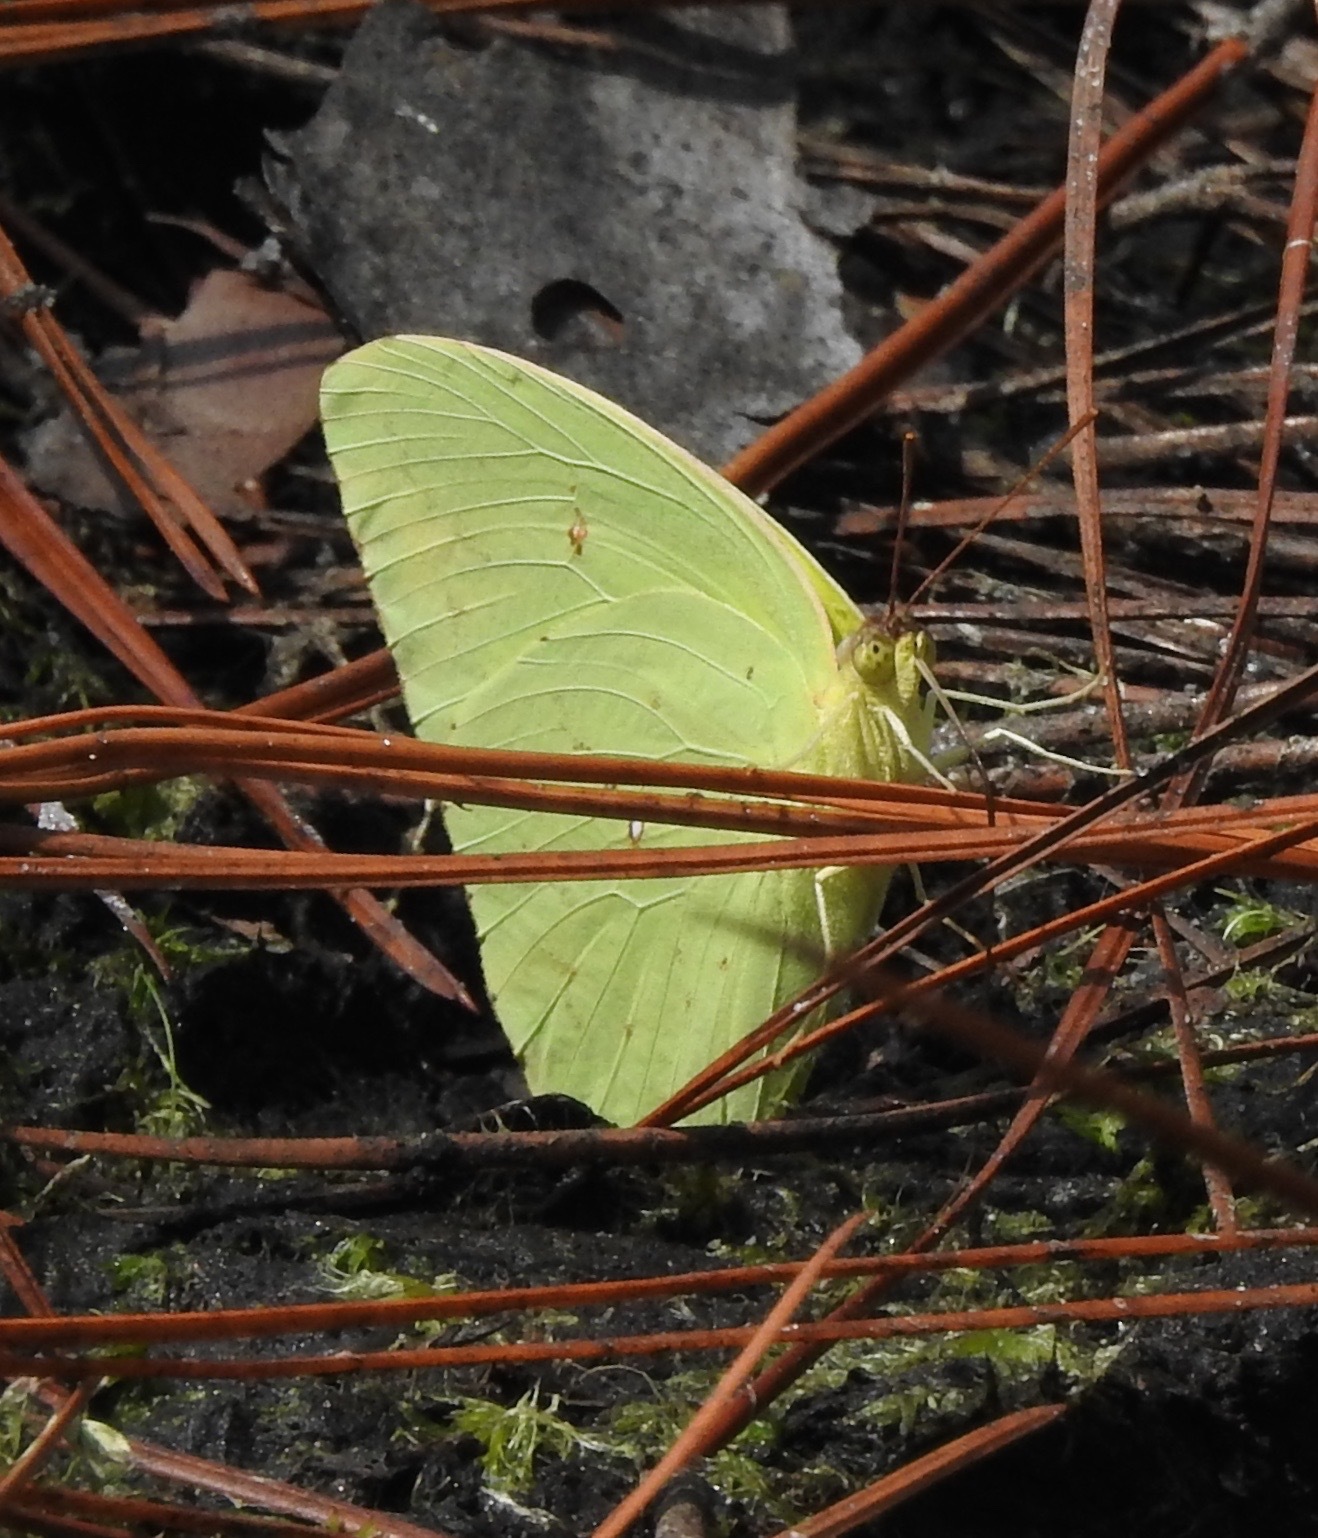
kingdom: Animalia
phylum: Arthropoda
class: Insecta
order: Lepidoptera
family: Pieridae
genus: Phoebis
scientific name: Phoebis sennae
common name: Cloudless sulphur
